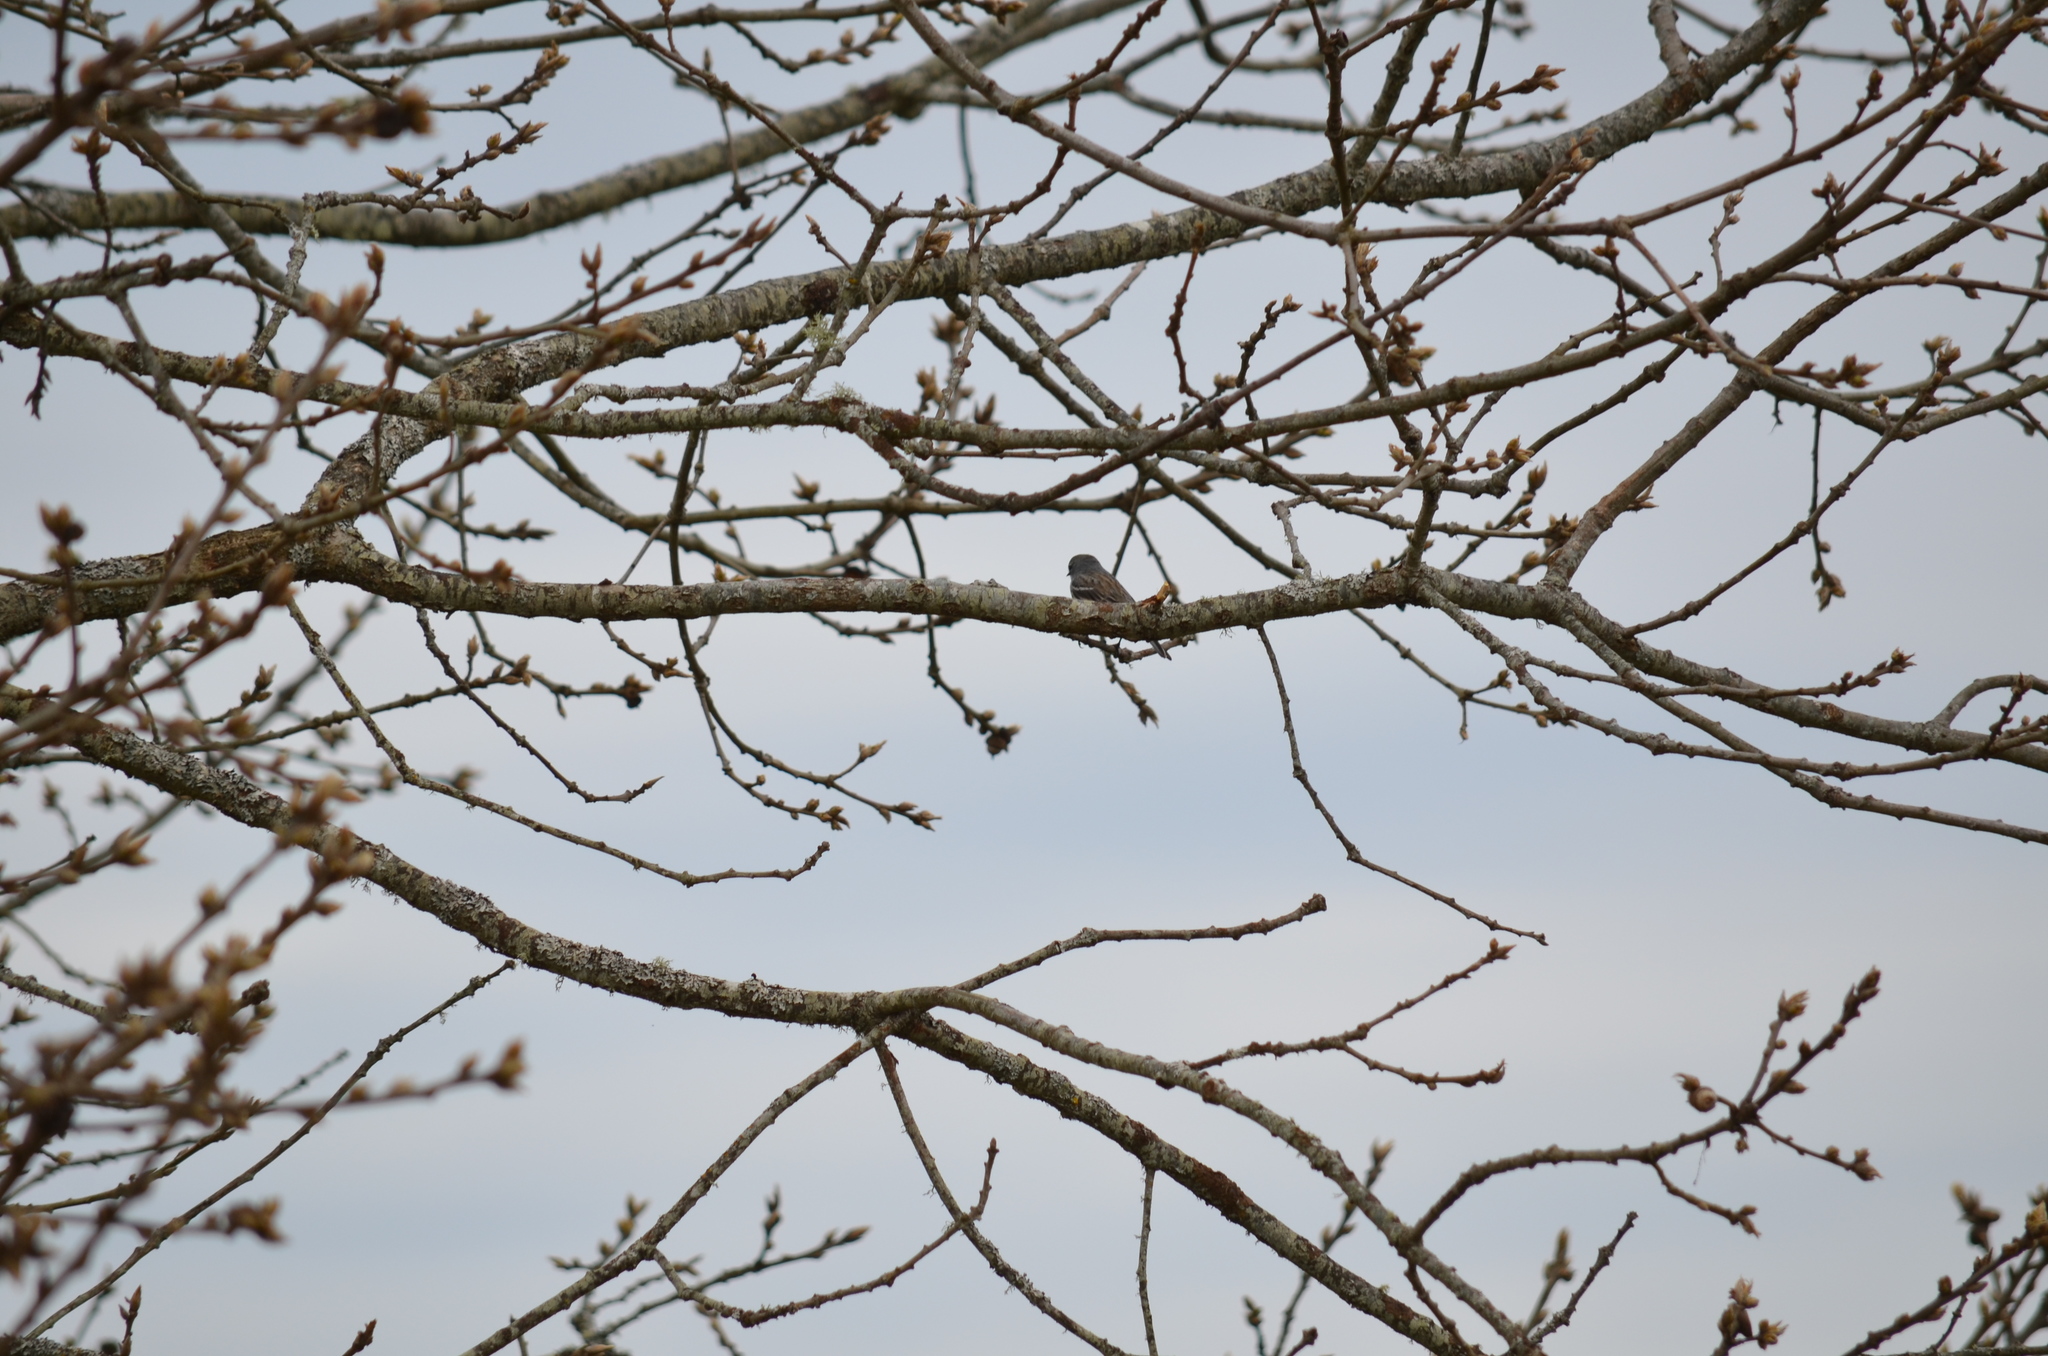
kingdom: Animalia
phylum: Chordata
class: Aves
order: Passeriformes
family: Parulidae
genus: Setophaga
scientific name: Setophaga coronata
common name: Myrtle warbler
